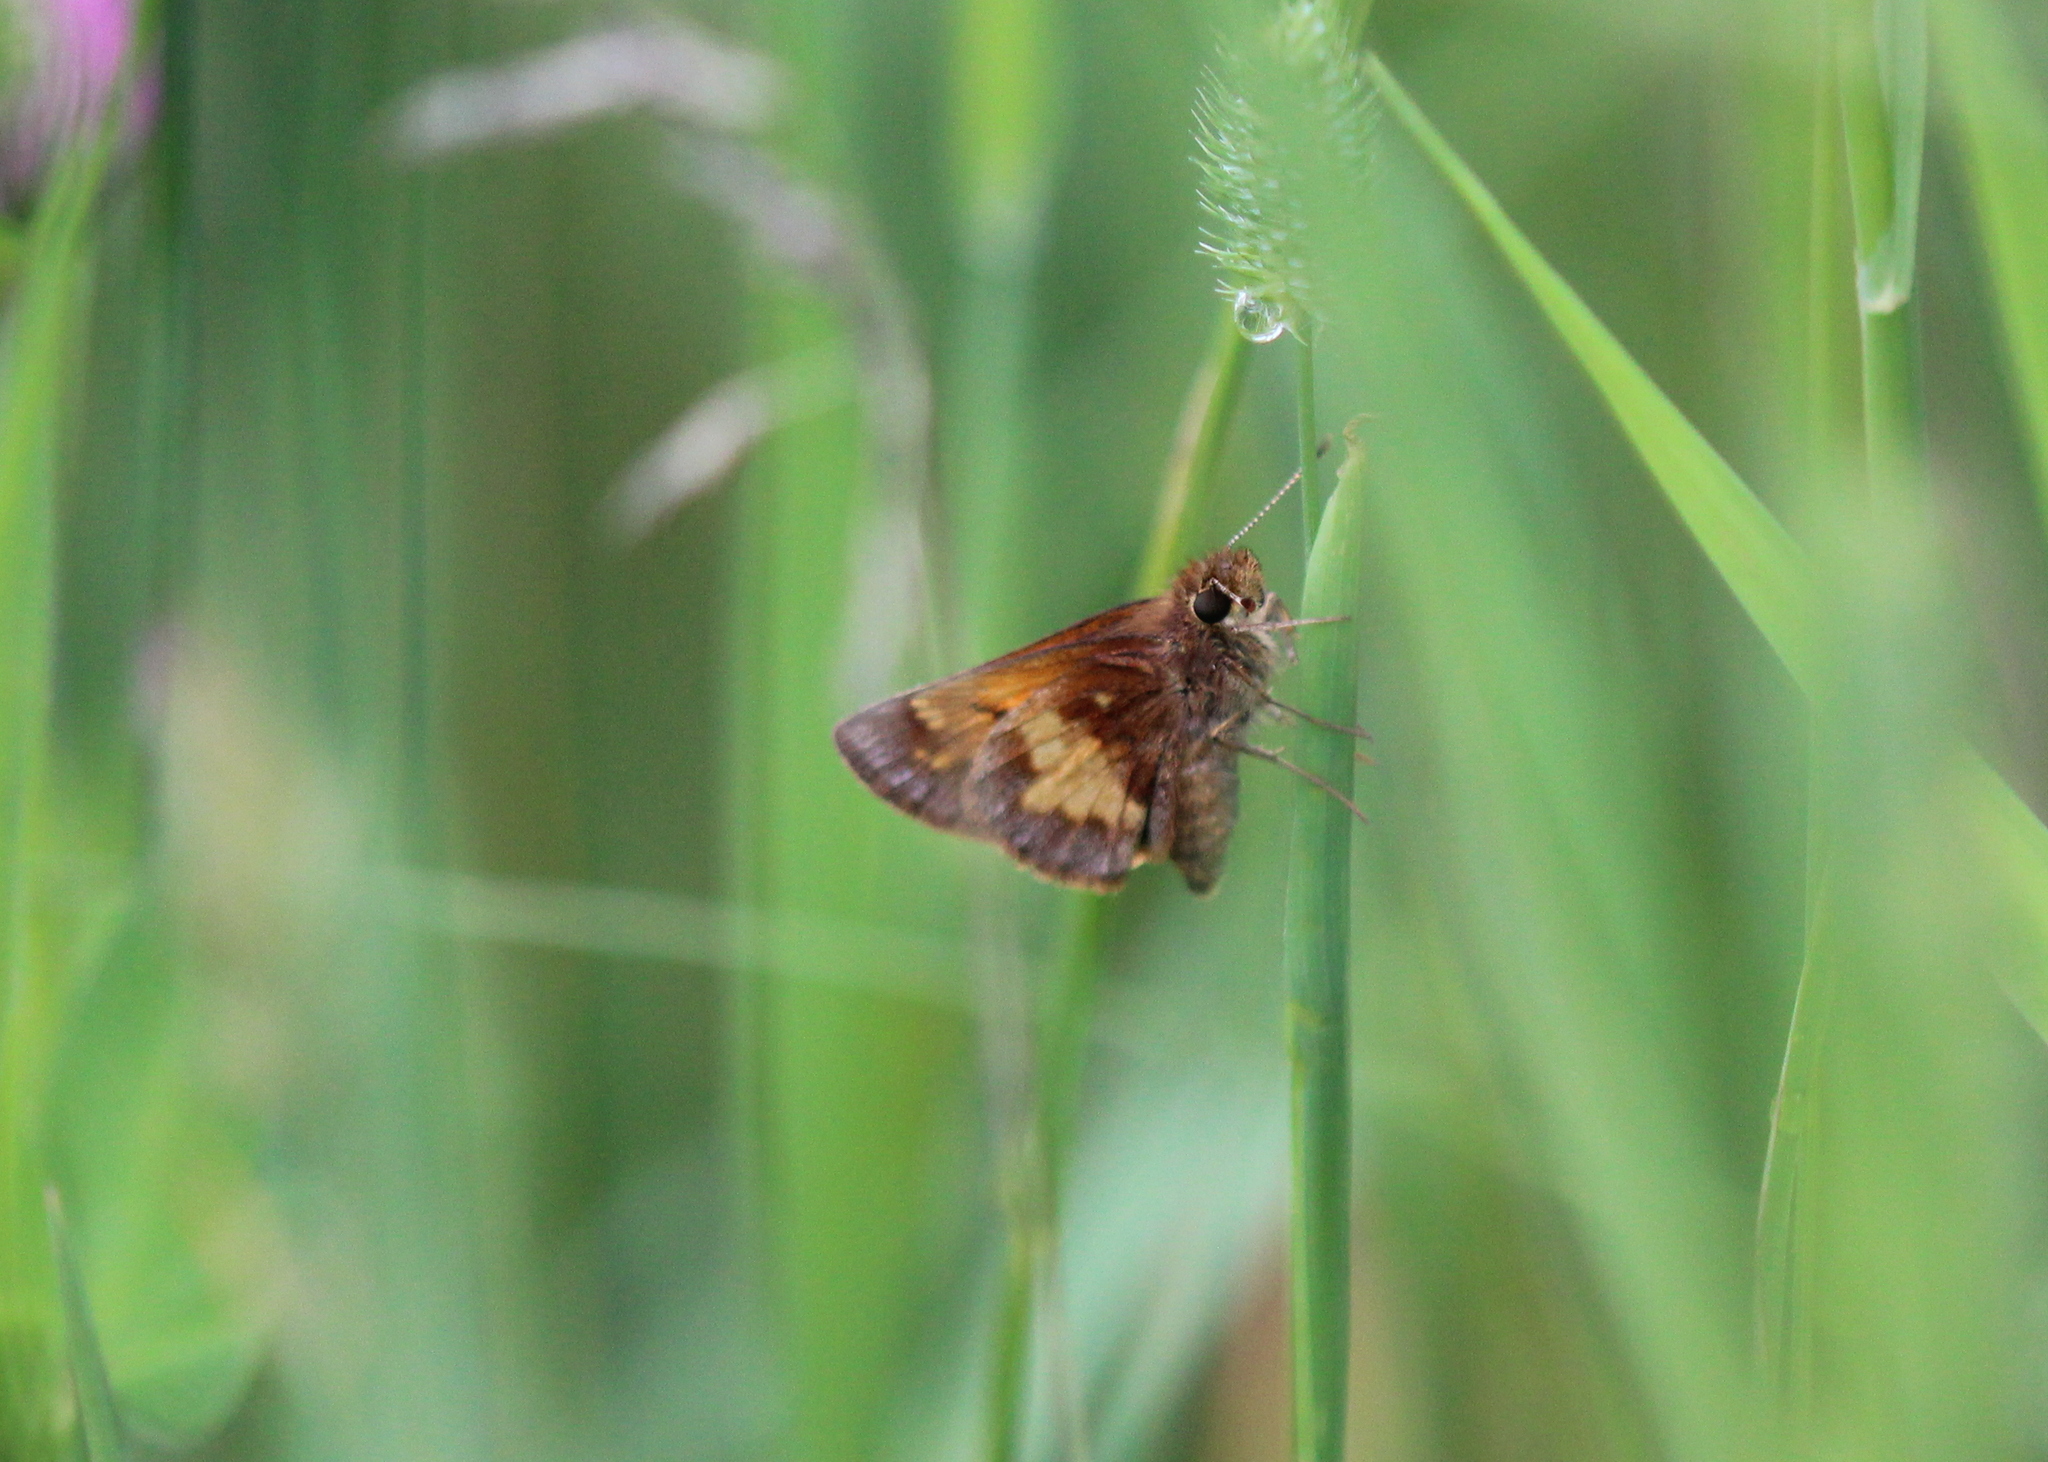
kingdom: Animalia
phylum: Arthropoda
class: Insecta
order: Lepidoptera
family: Hesperiidae
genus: Lon
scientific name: Lon hobomok
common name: Hobomok skipper
